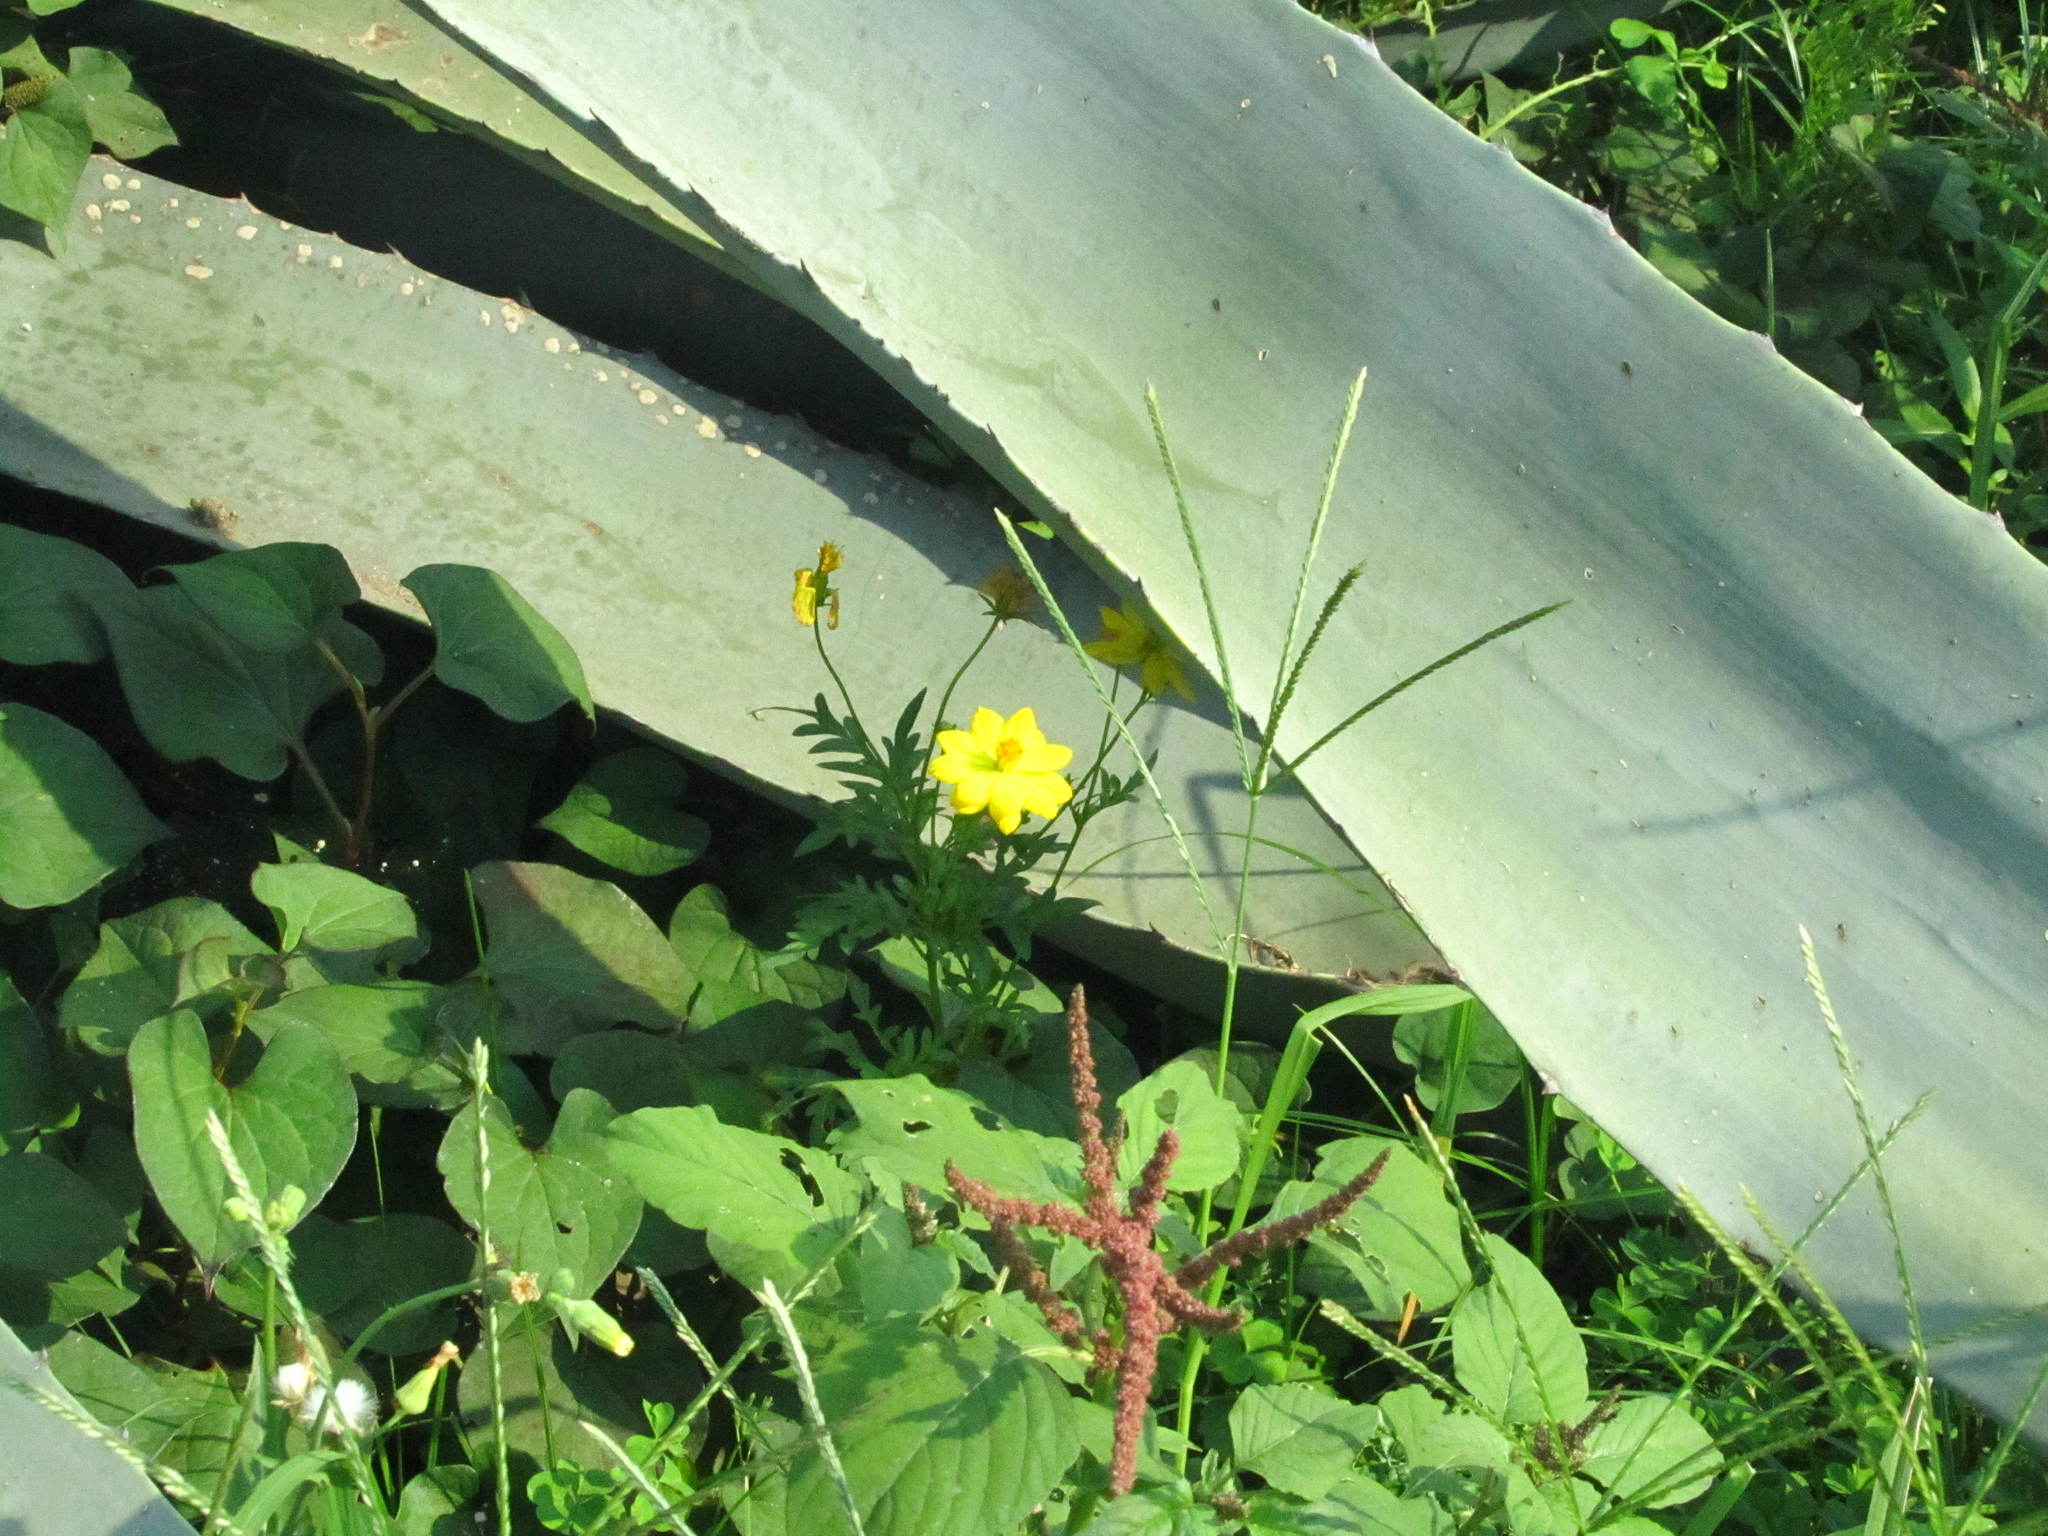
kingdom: Plantae
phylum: Tracheophyta
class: Magnoliopsida
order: Asterales
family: Asteraceae
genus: Cosmos
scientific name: Cosmos sulphureus
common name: Sulphur cosmos
